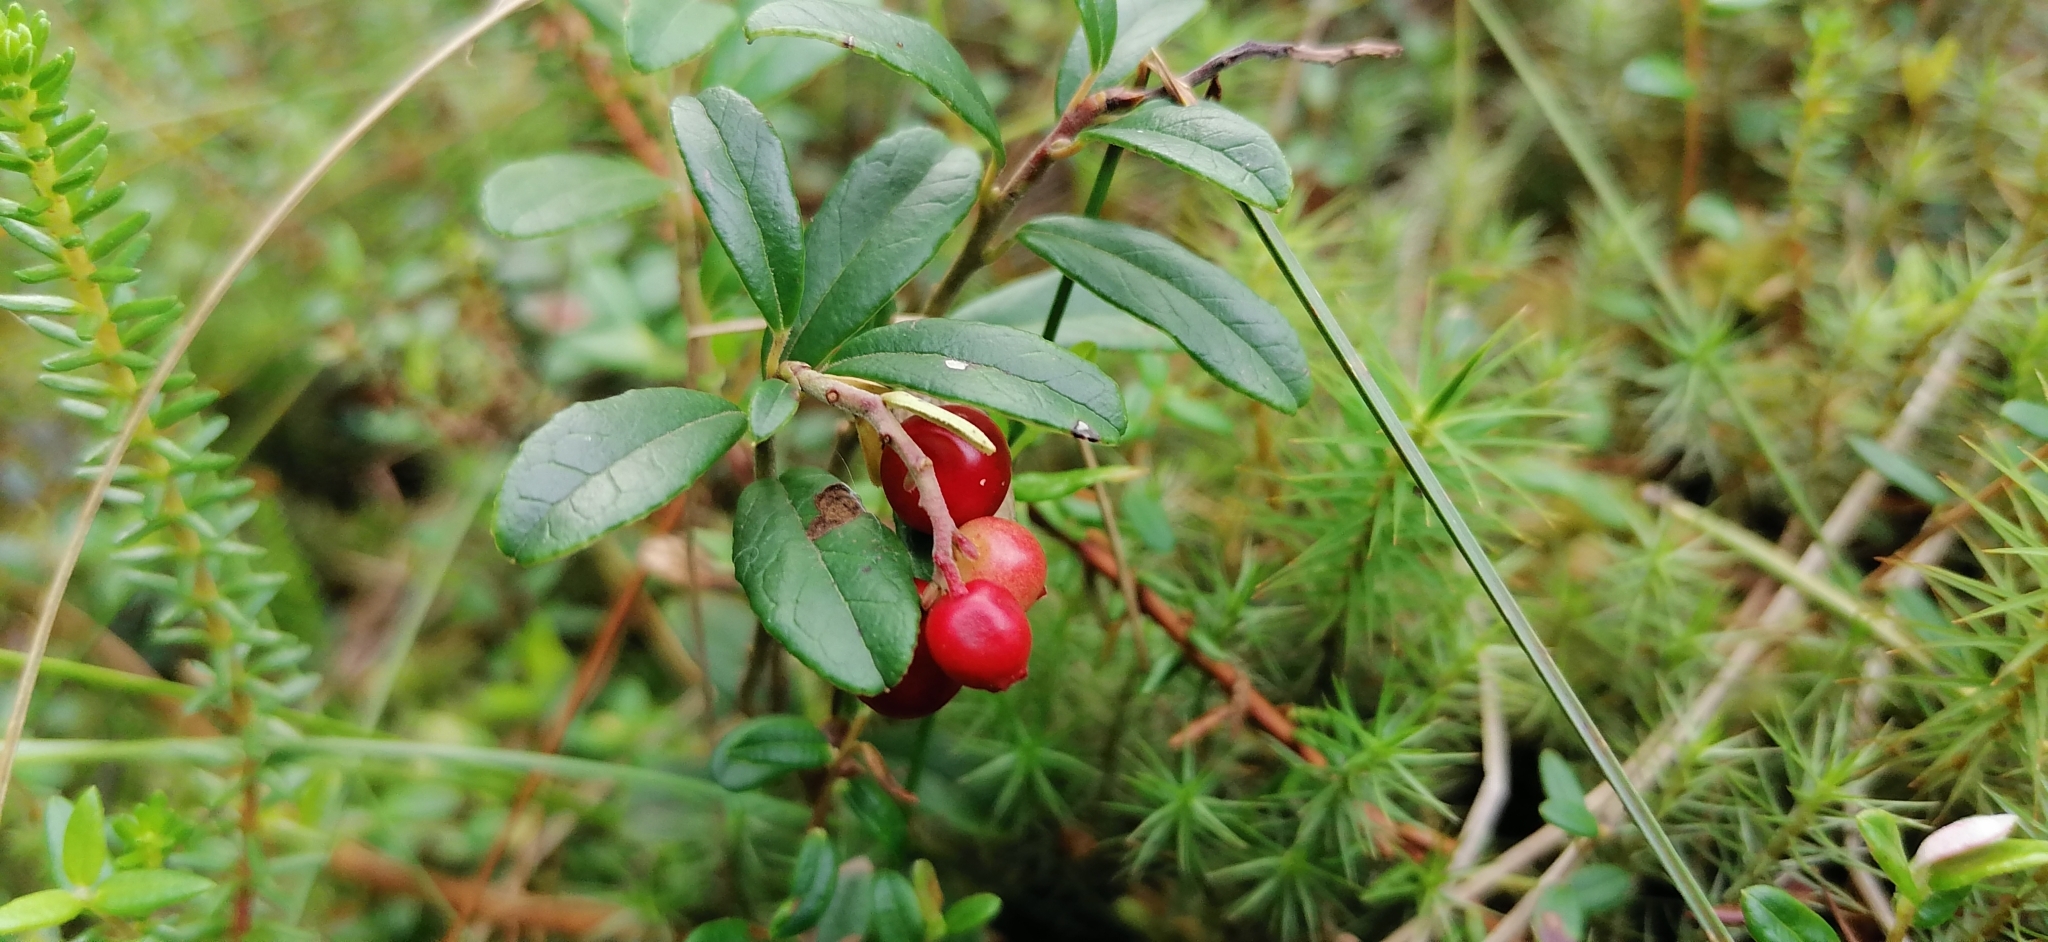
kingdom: Plantae
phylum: Tracheophyta
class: Magnoliopsida
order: Ericales
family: Ericaceae
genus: Vaccinium
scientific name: Vaccinium vitis-idaea
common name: Cowberry
